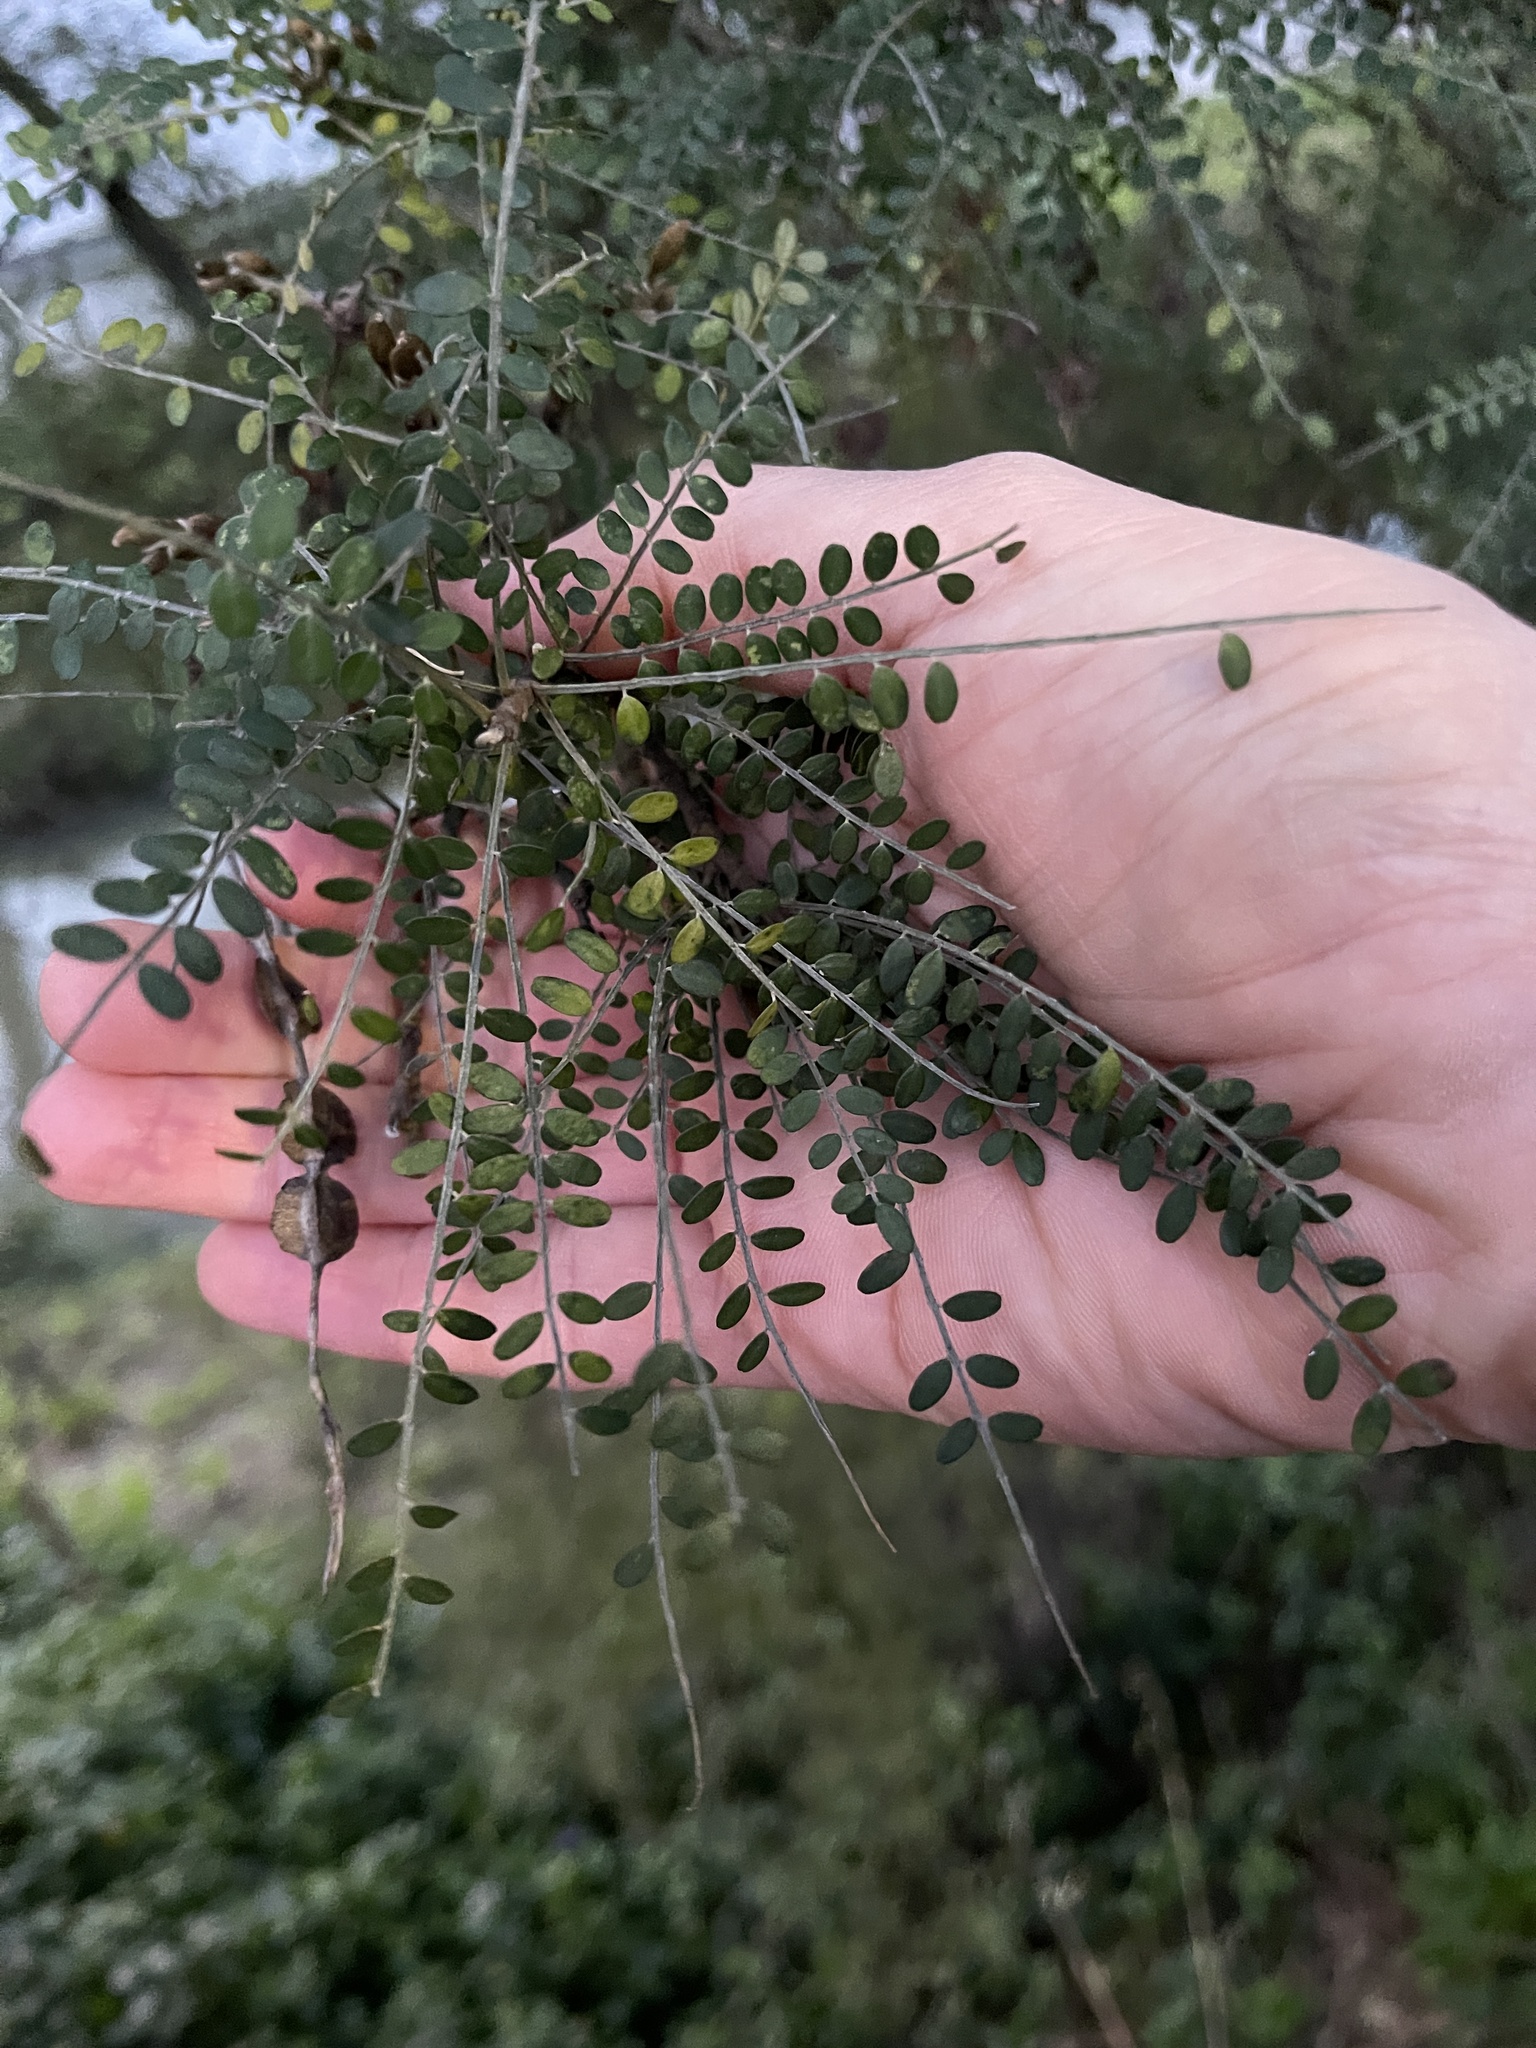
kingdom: Plantae
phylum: Tracheophyta
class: Magnoliopsida
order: Fabales
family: Fabaceae
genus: Sophora
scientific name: Sophora microphylla
